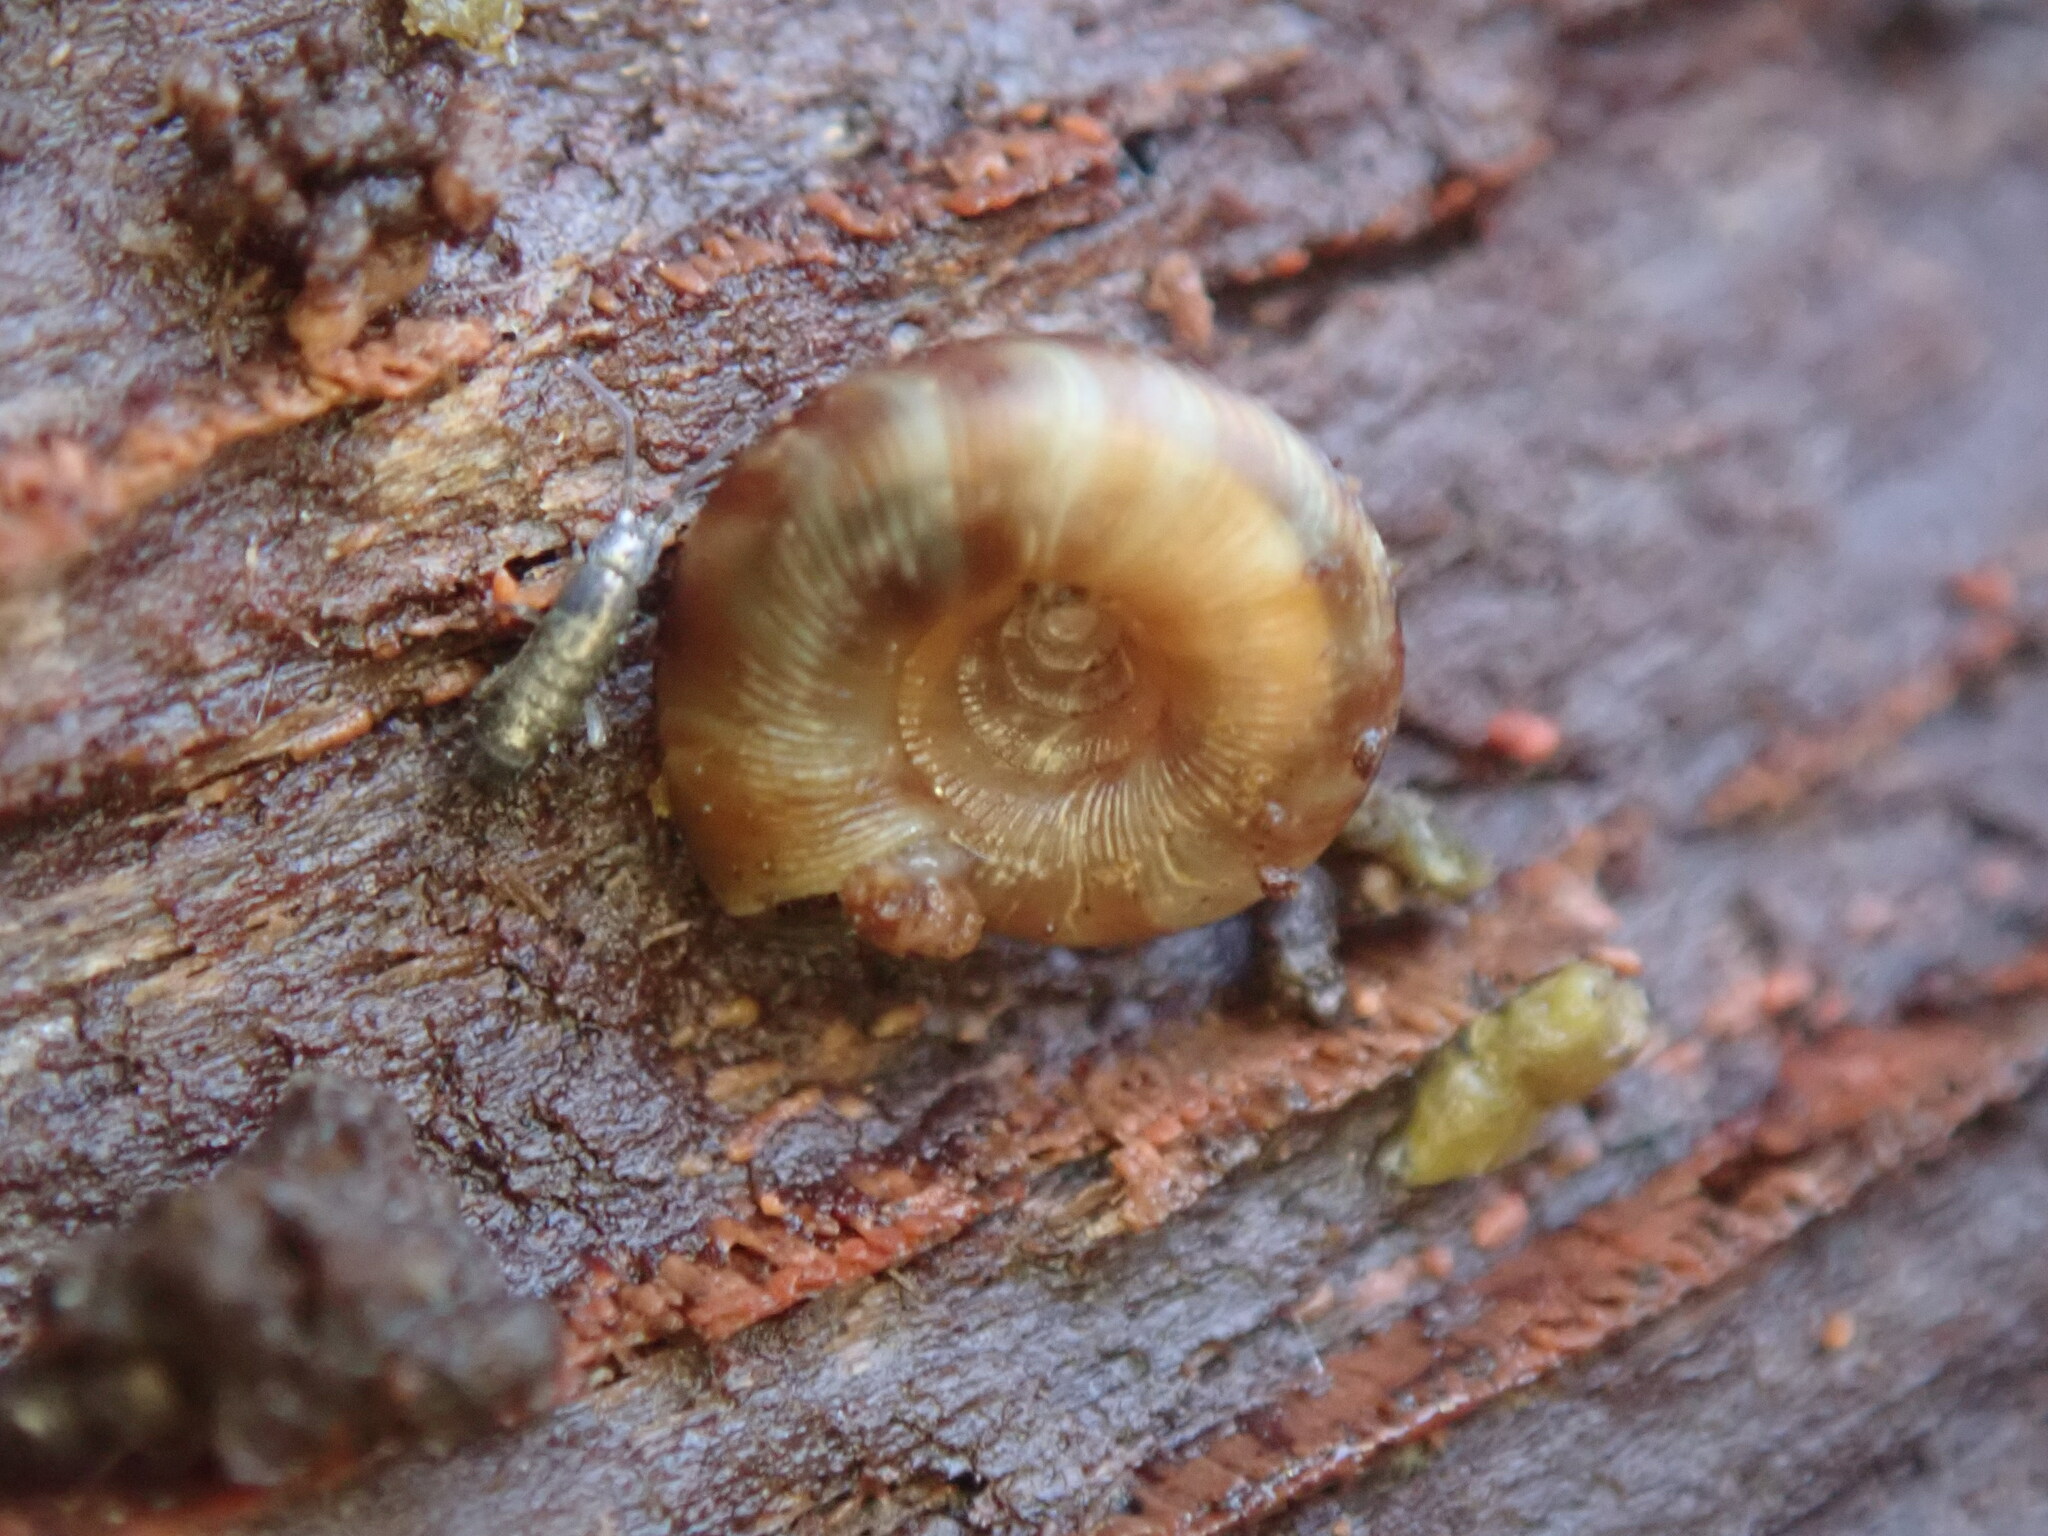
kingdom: Animalia
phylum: Mollusca
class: Gastropoda
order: Stylommatophora
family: Discidae
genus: Discus
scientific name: Discus rotundatus
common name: Rounded snail
